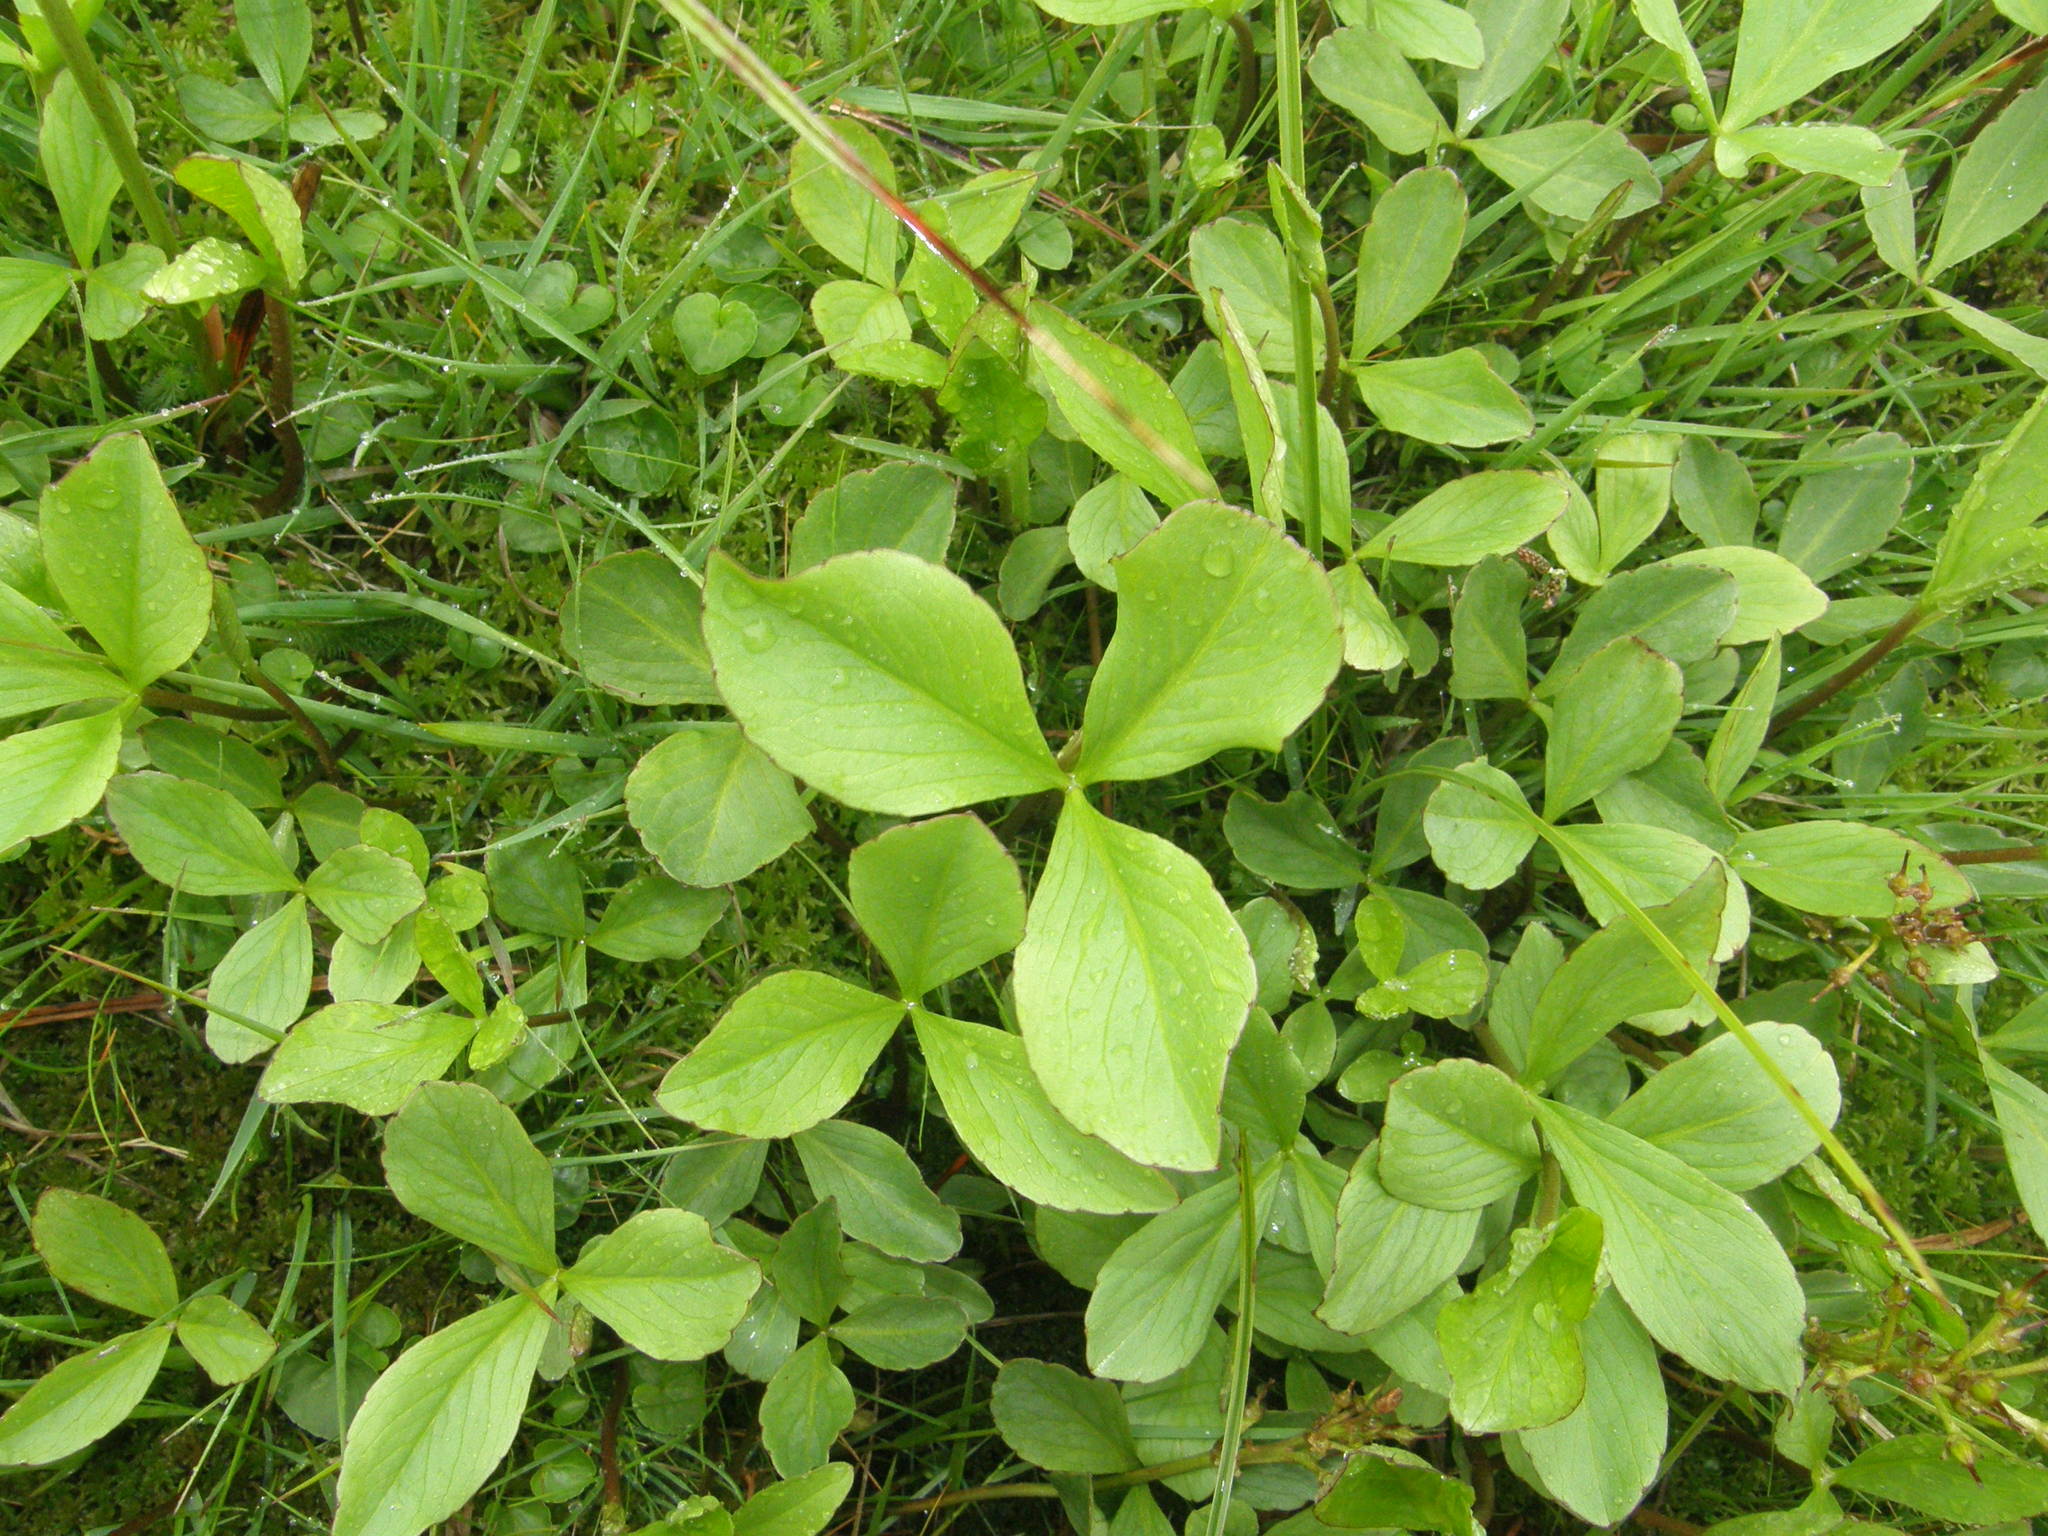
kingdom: Plantae
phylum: Tracheophyta
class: Magnoliopsida
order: Asterales
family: Menyanthaceae
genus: Menyanthes
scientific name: Menyanthes trifoliata
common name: Bogbean
